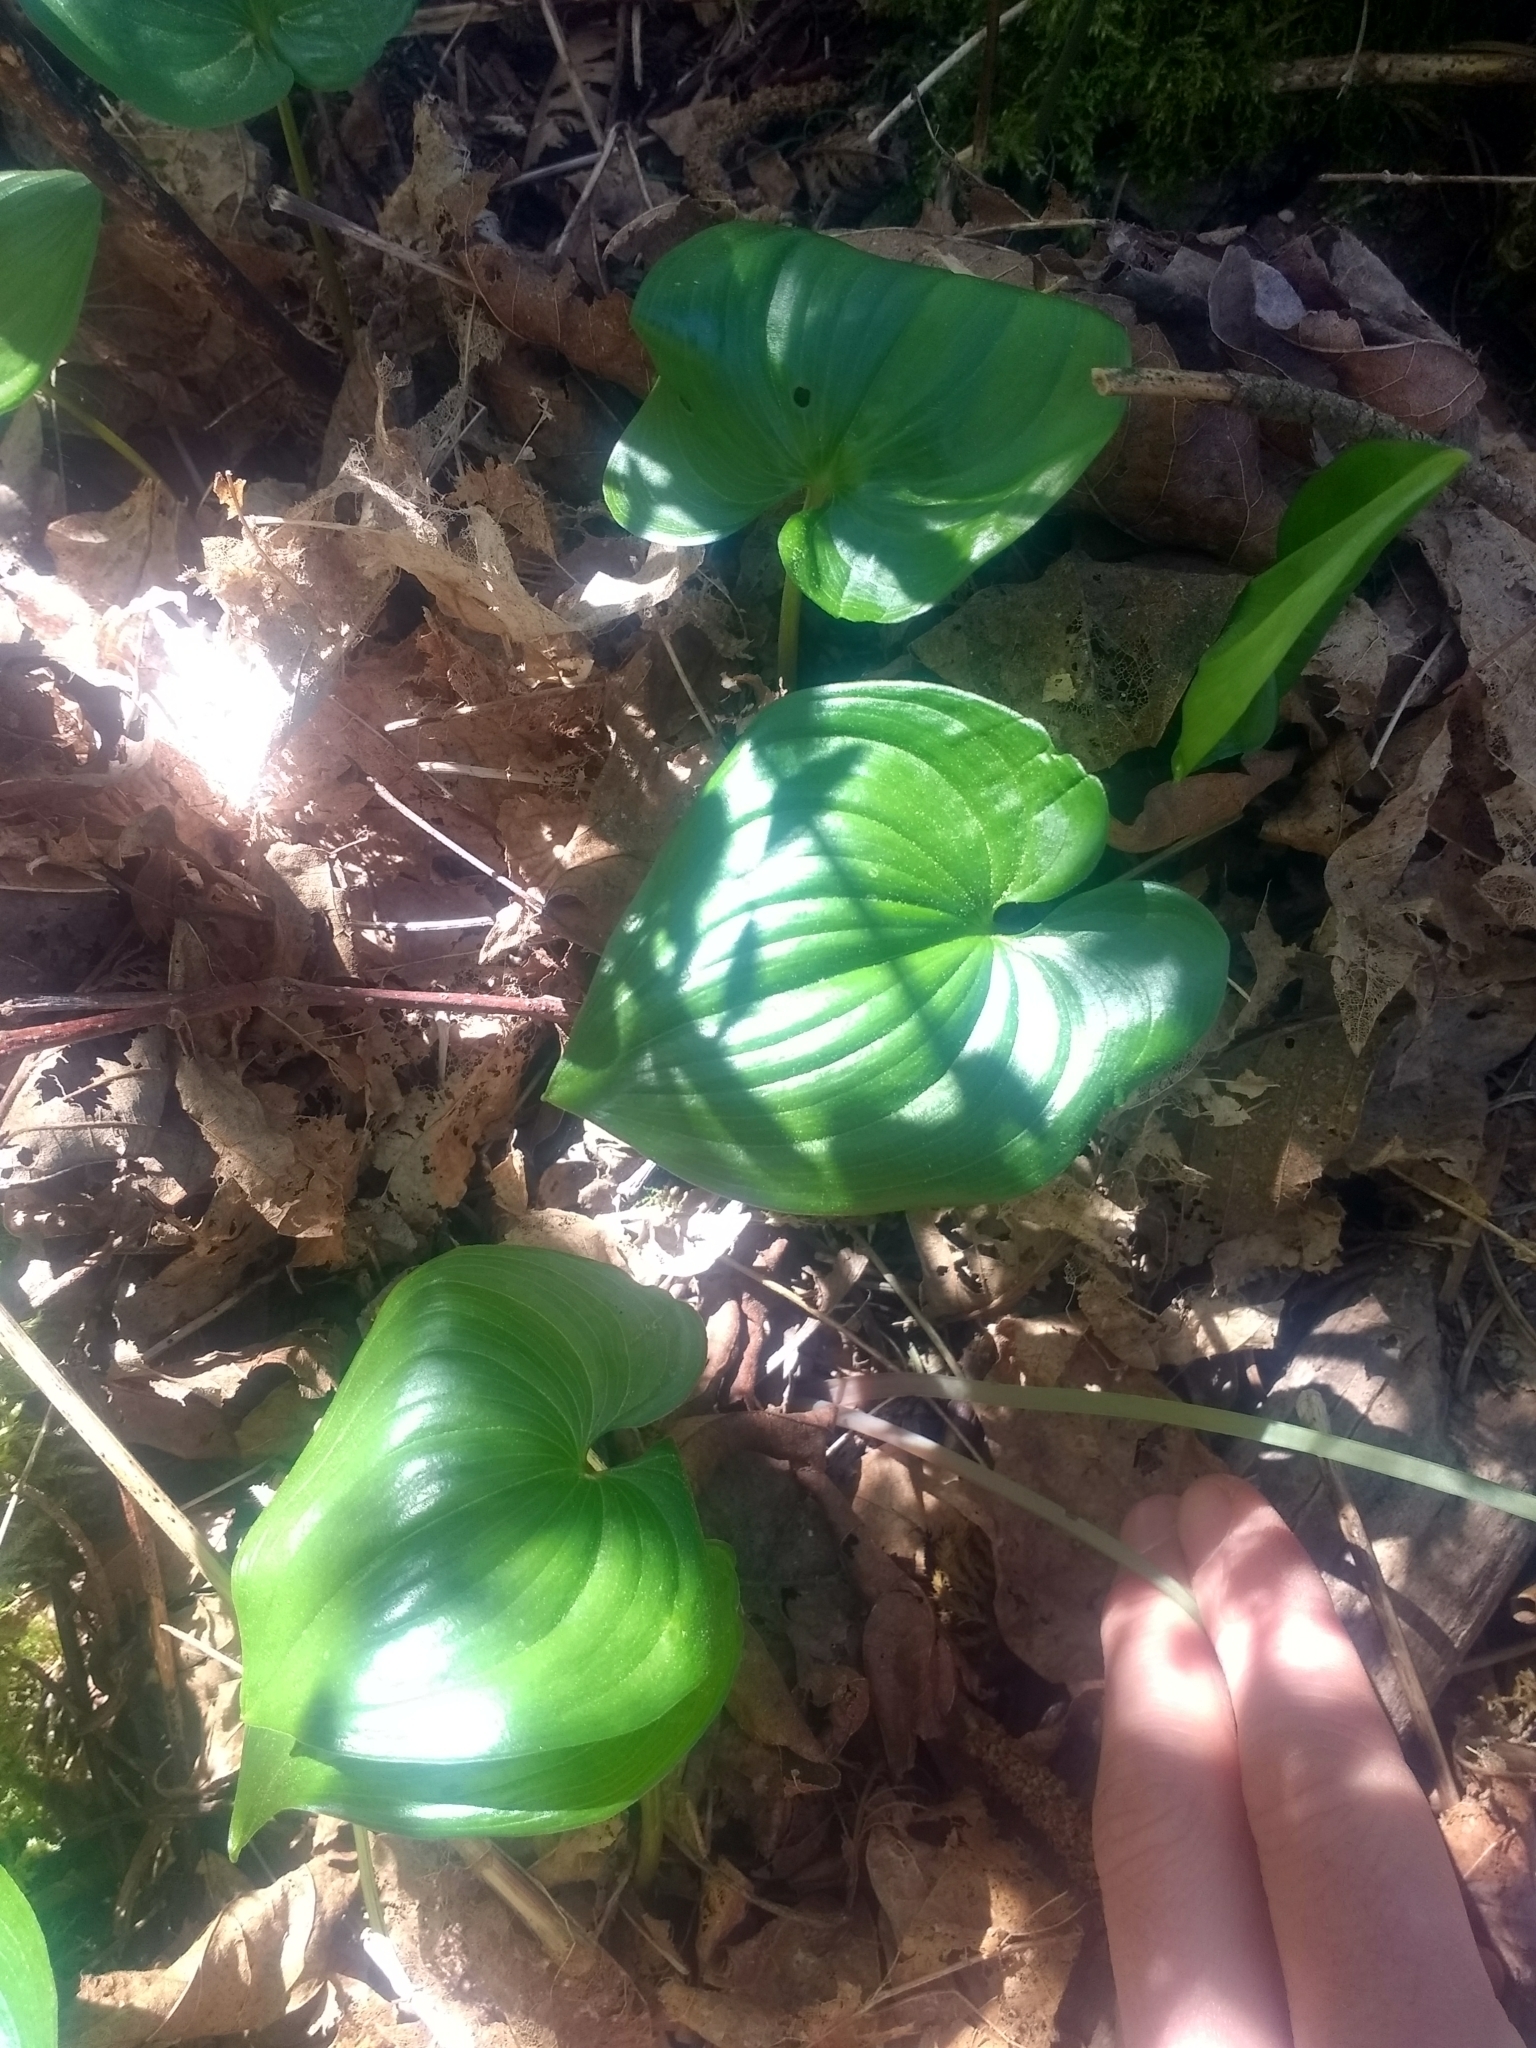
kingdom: Plantae
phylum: Tracheophyta
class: Liliopsida
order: Asparagales
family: Asparagaceae
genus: Maianthemum
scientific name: Maianthemum dilatatum
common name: False lily-of-the-valley
